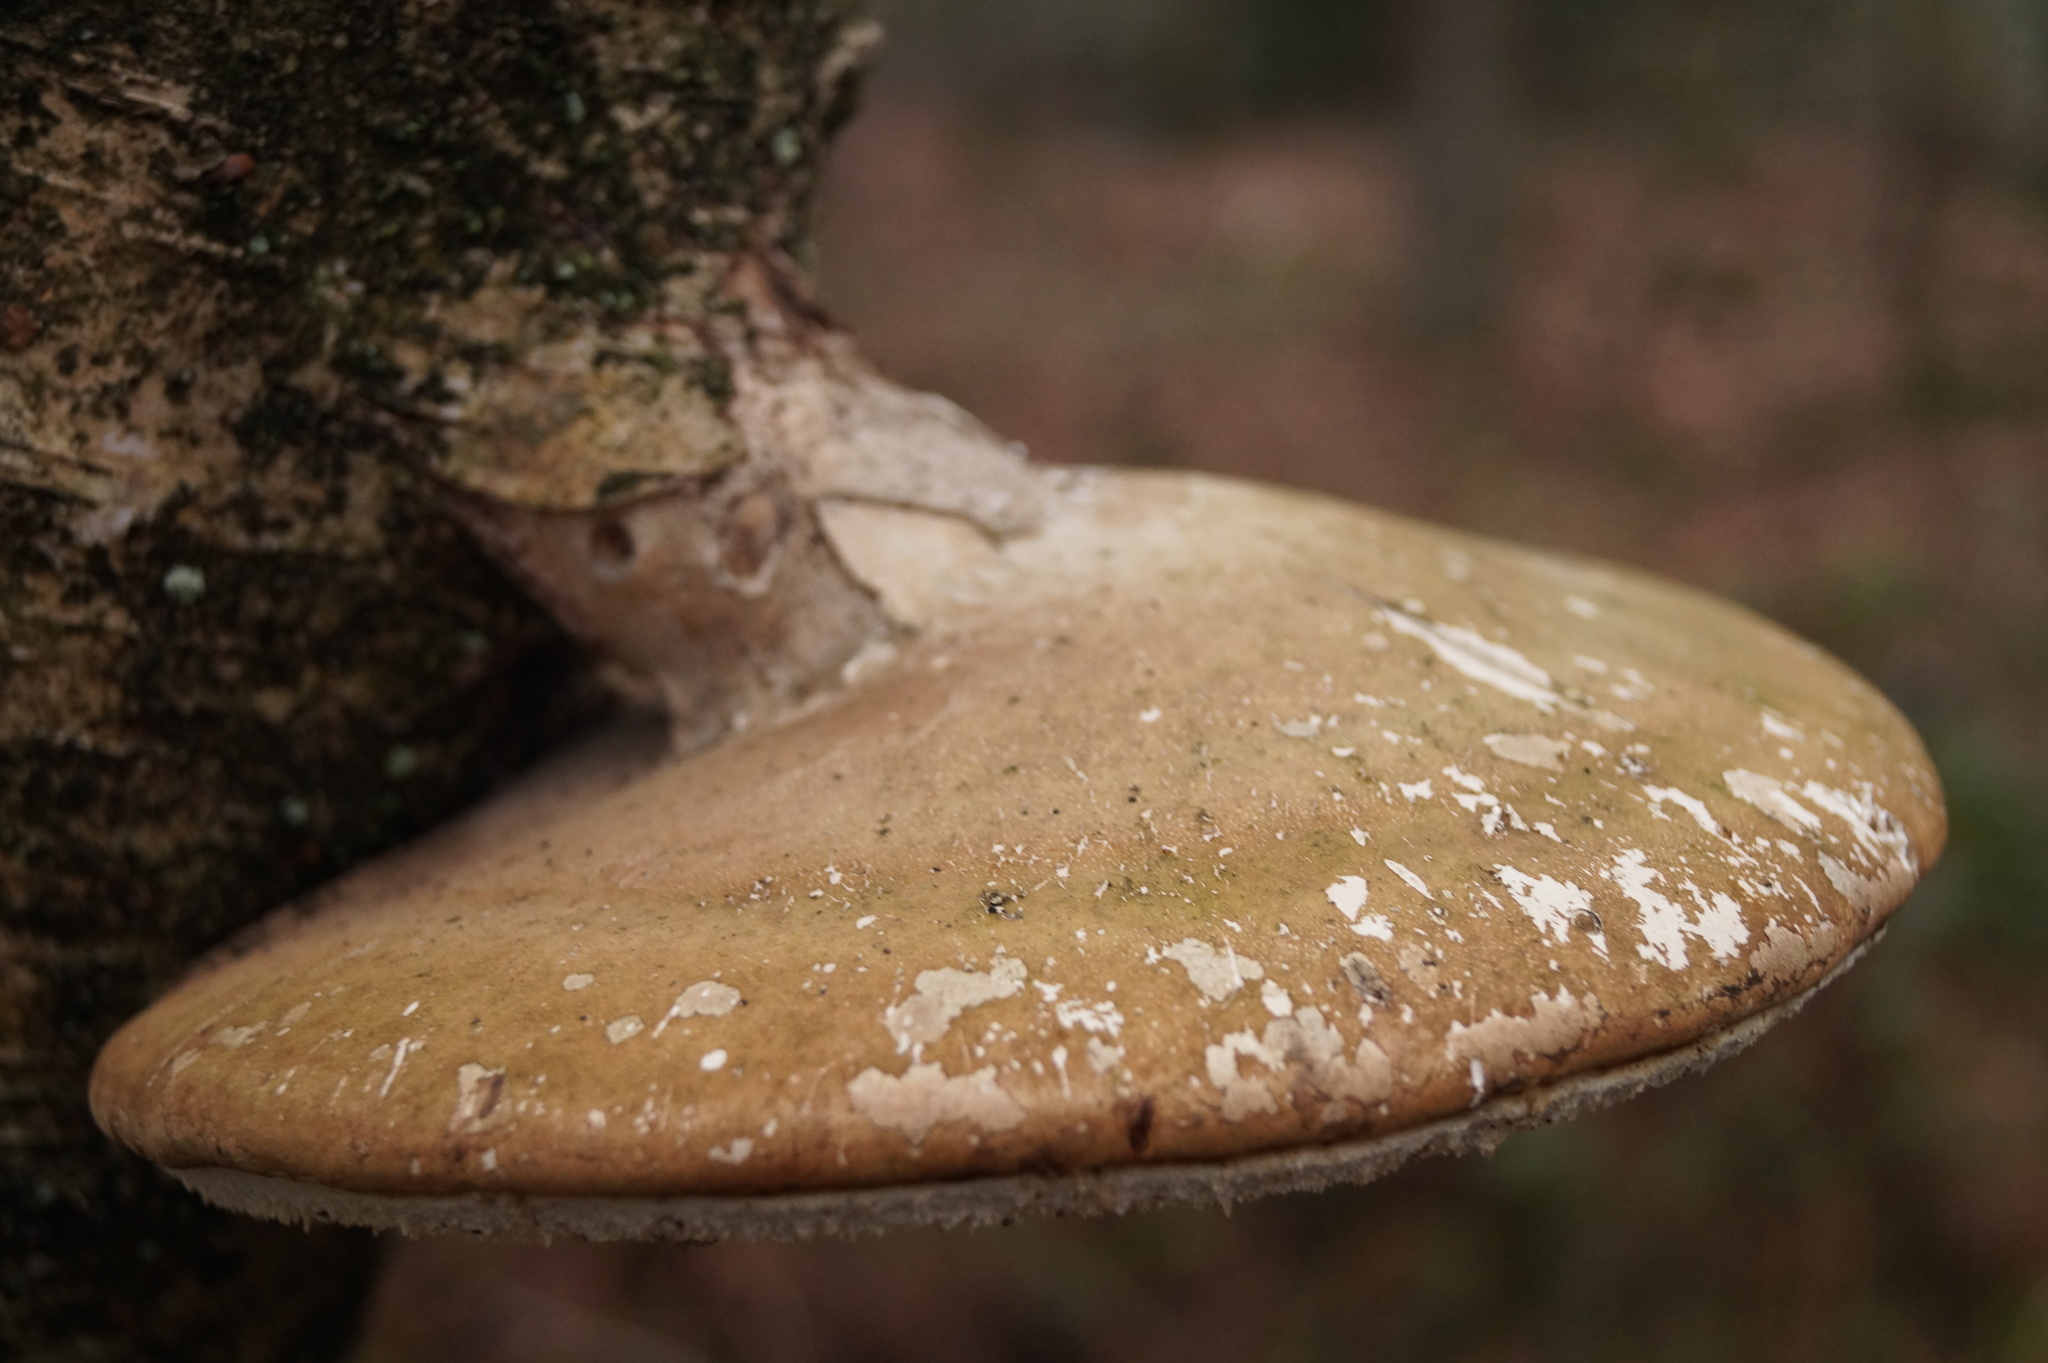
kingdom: Fungi
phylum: Basidiomycota
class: Agaricomycetes
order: Polyporales
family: Fomitopsidaceae
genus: Fomitopsis
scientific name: Fomitopsis betulina
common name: Birch polypore
